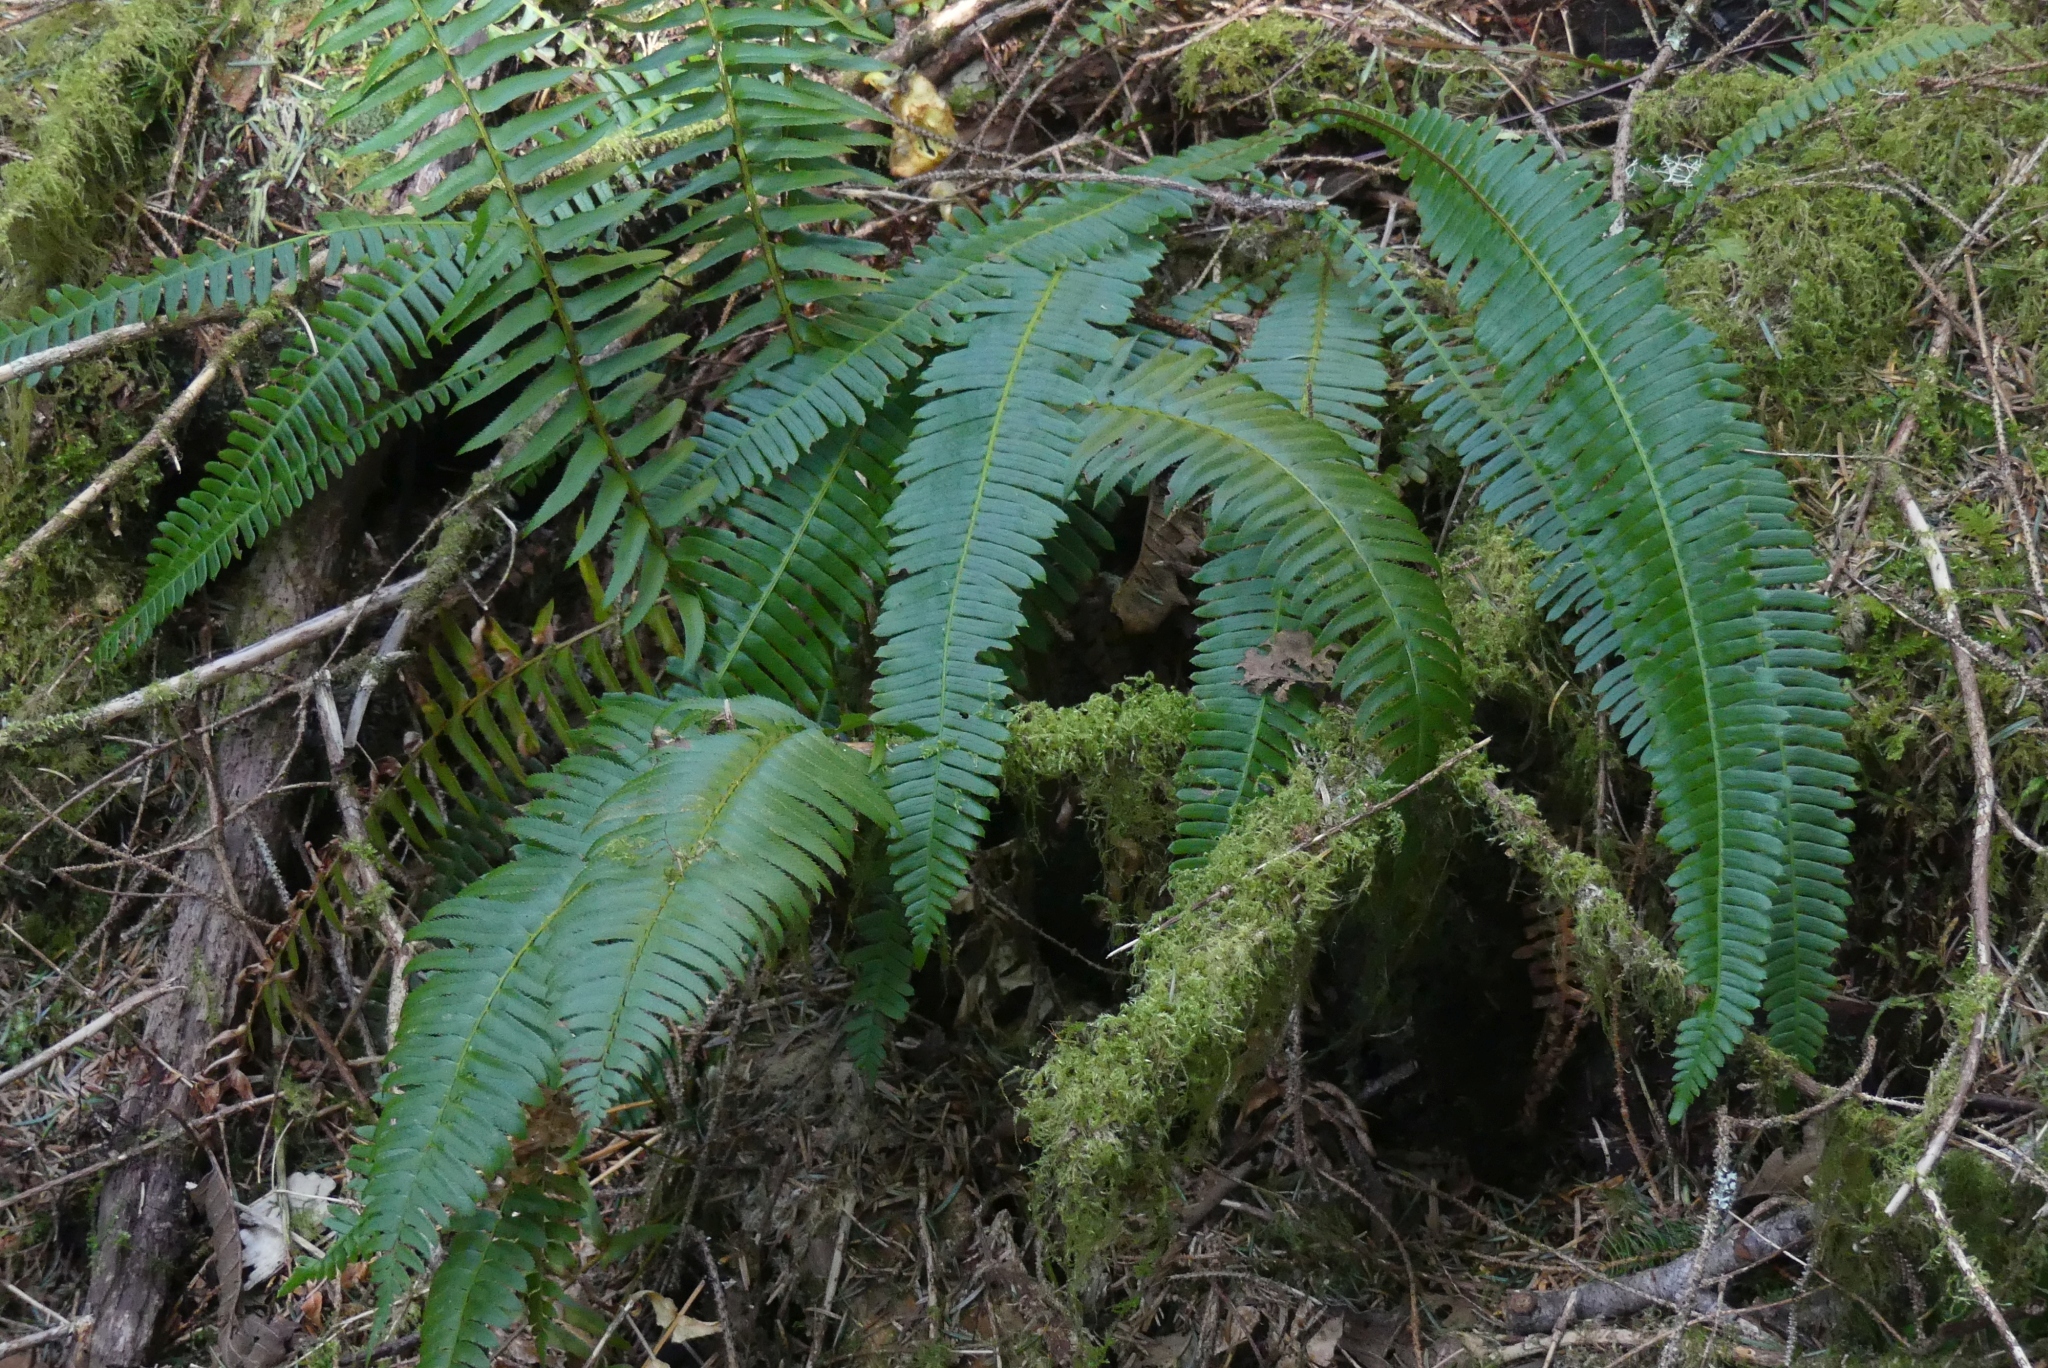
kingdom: Plantae
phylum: Tracheophyta
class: Polypodiopsida
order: Polypodiales
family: Blechnaceae
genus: Struthiopteris
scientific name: Struthiopteris spicant
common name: Deer fern
